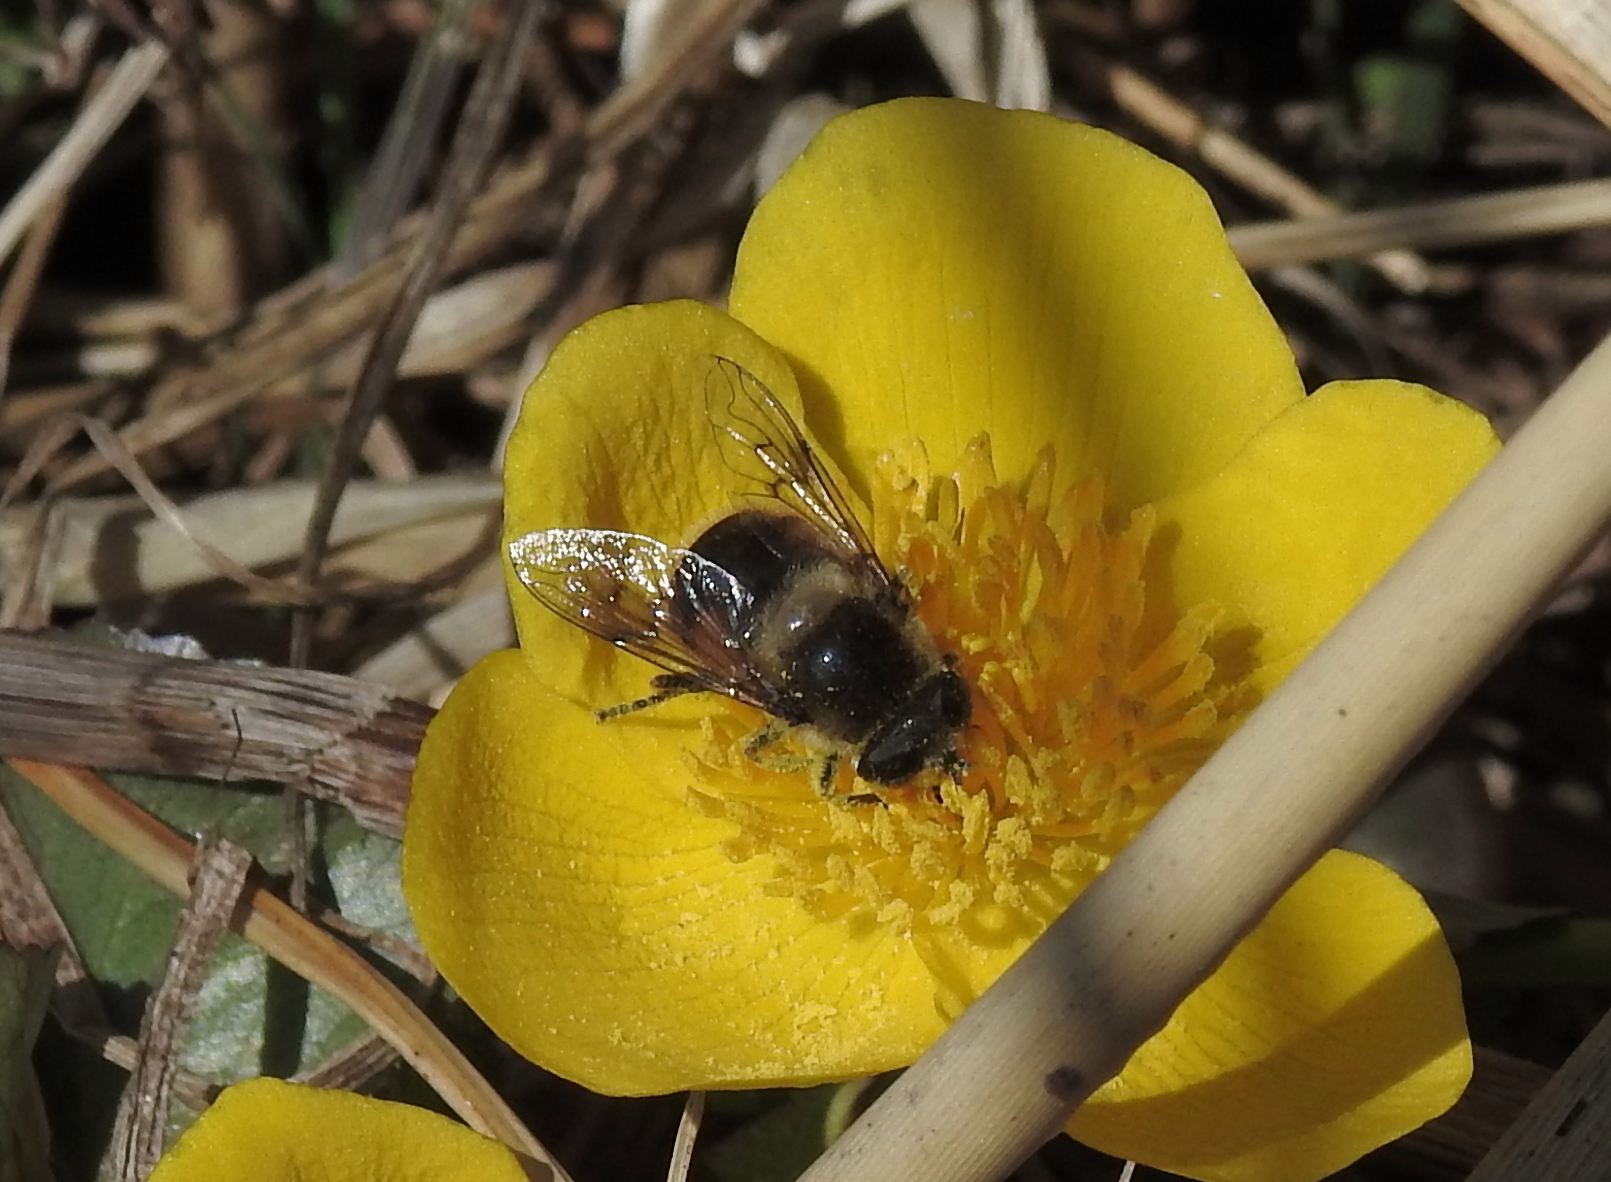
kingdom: Animalia
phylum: Arthropoda
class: Insecta
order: Diptera
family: Syrphidae
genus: Eristalis
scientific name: Eristalis anthophorina
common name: Orange-spotted drone fly
